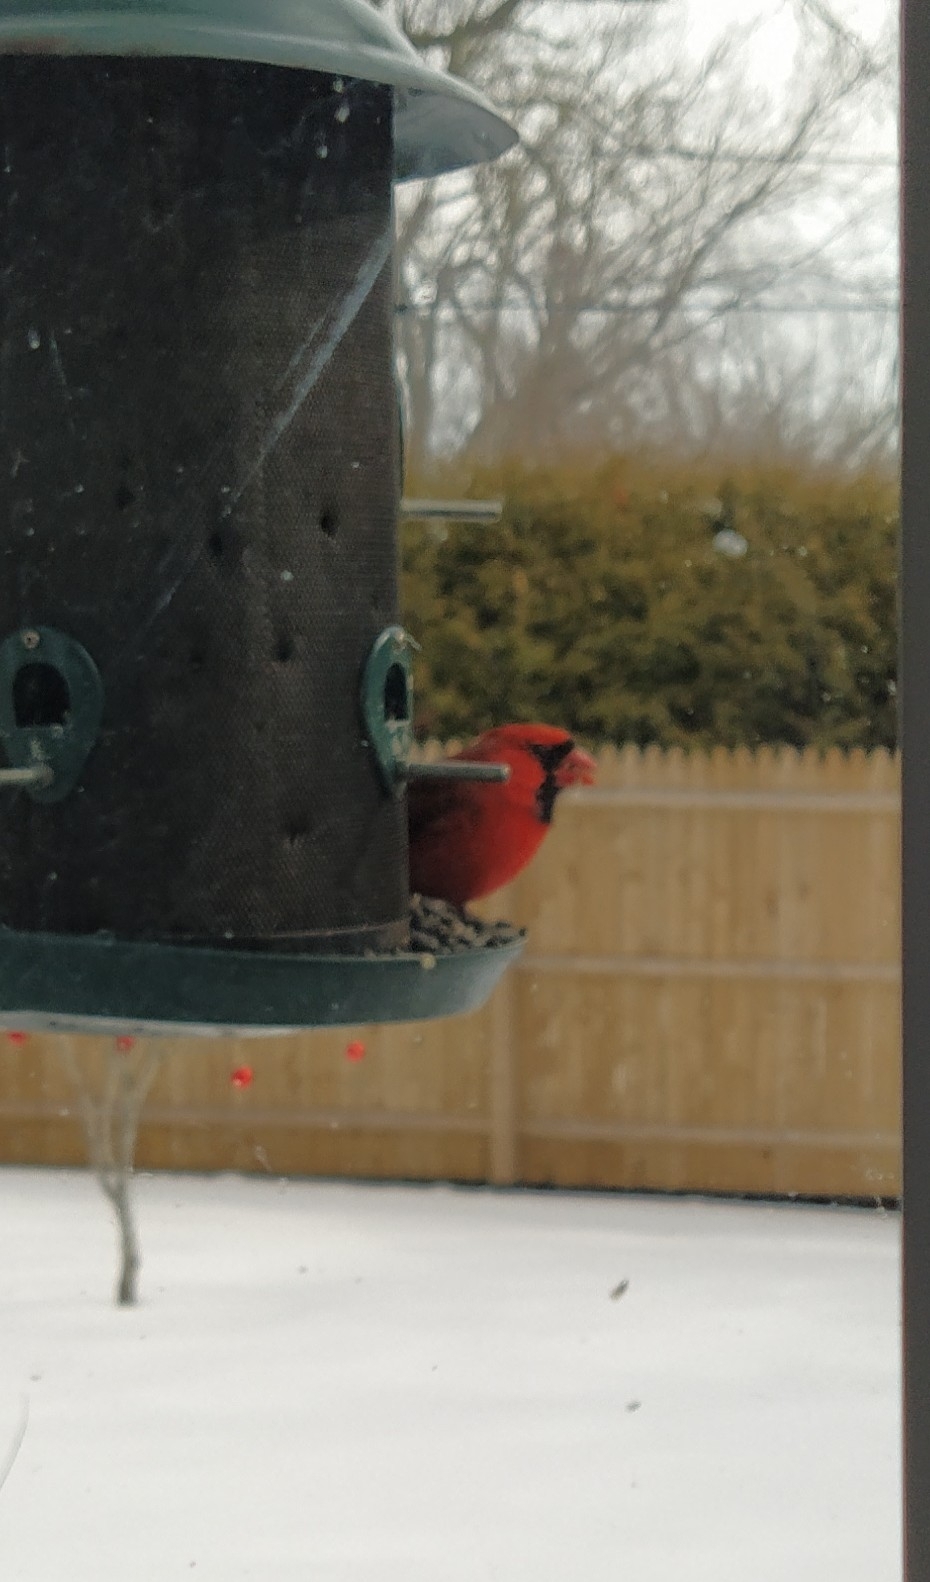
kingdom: Animalia
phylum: Chordata
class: Aves
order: Passeriformes
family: Cardinalidae
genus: Cardinalis
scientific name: Cardinalis cardinalis
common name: Northern cardinal
